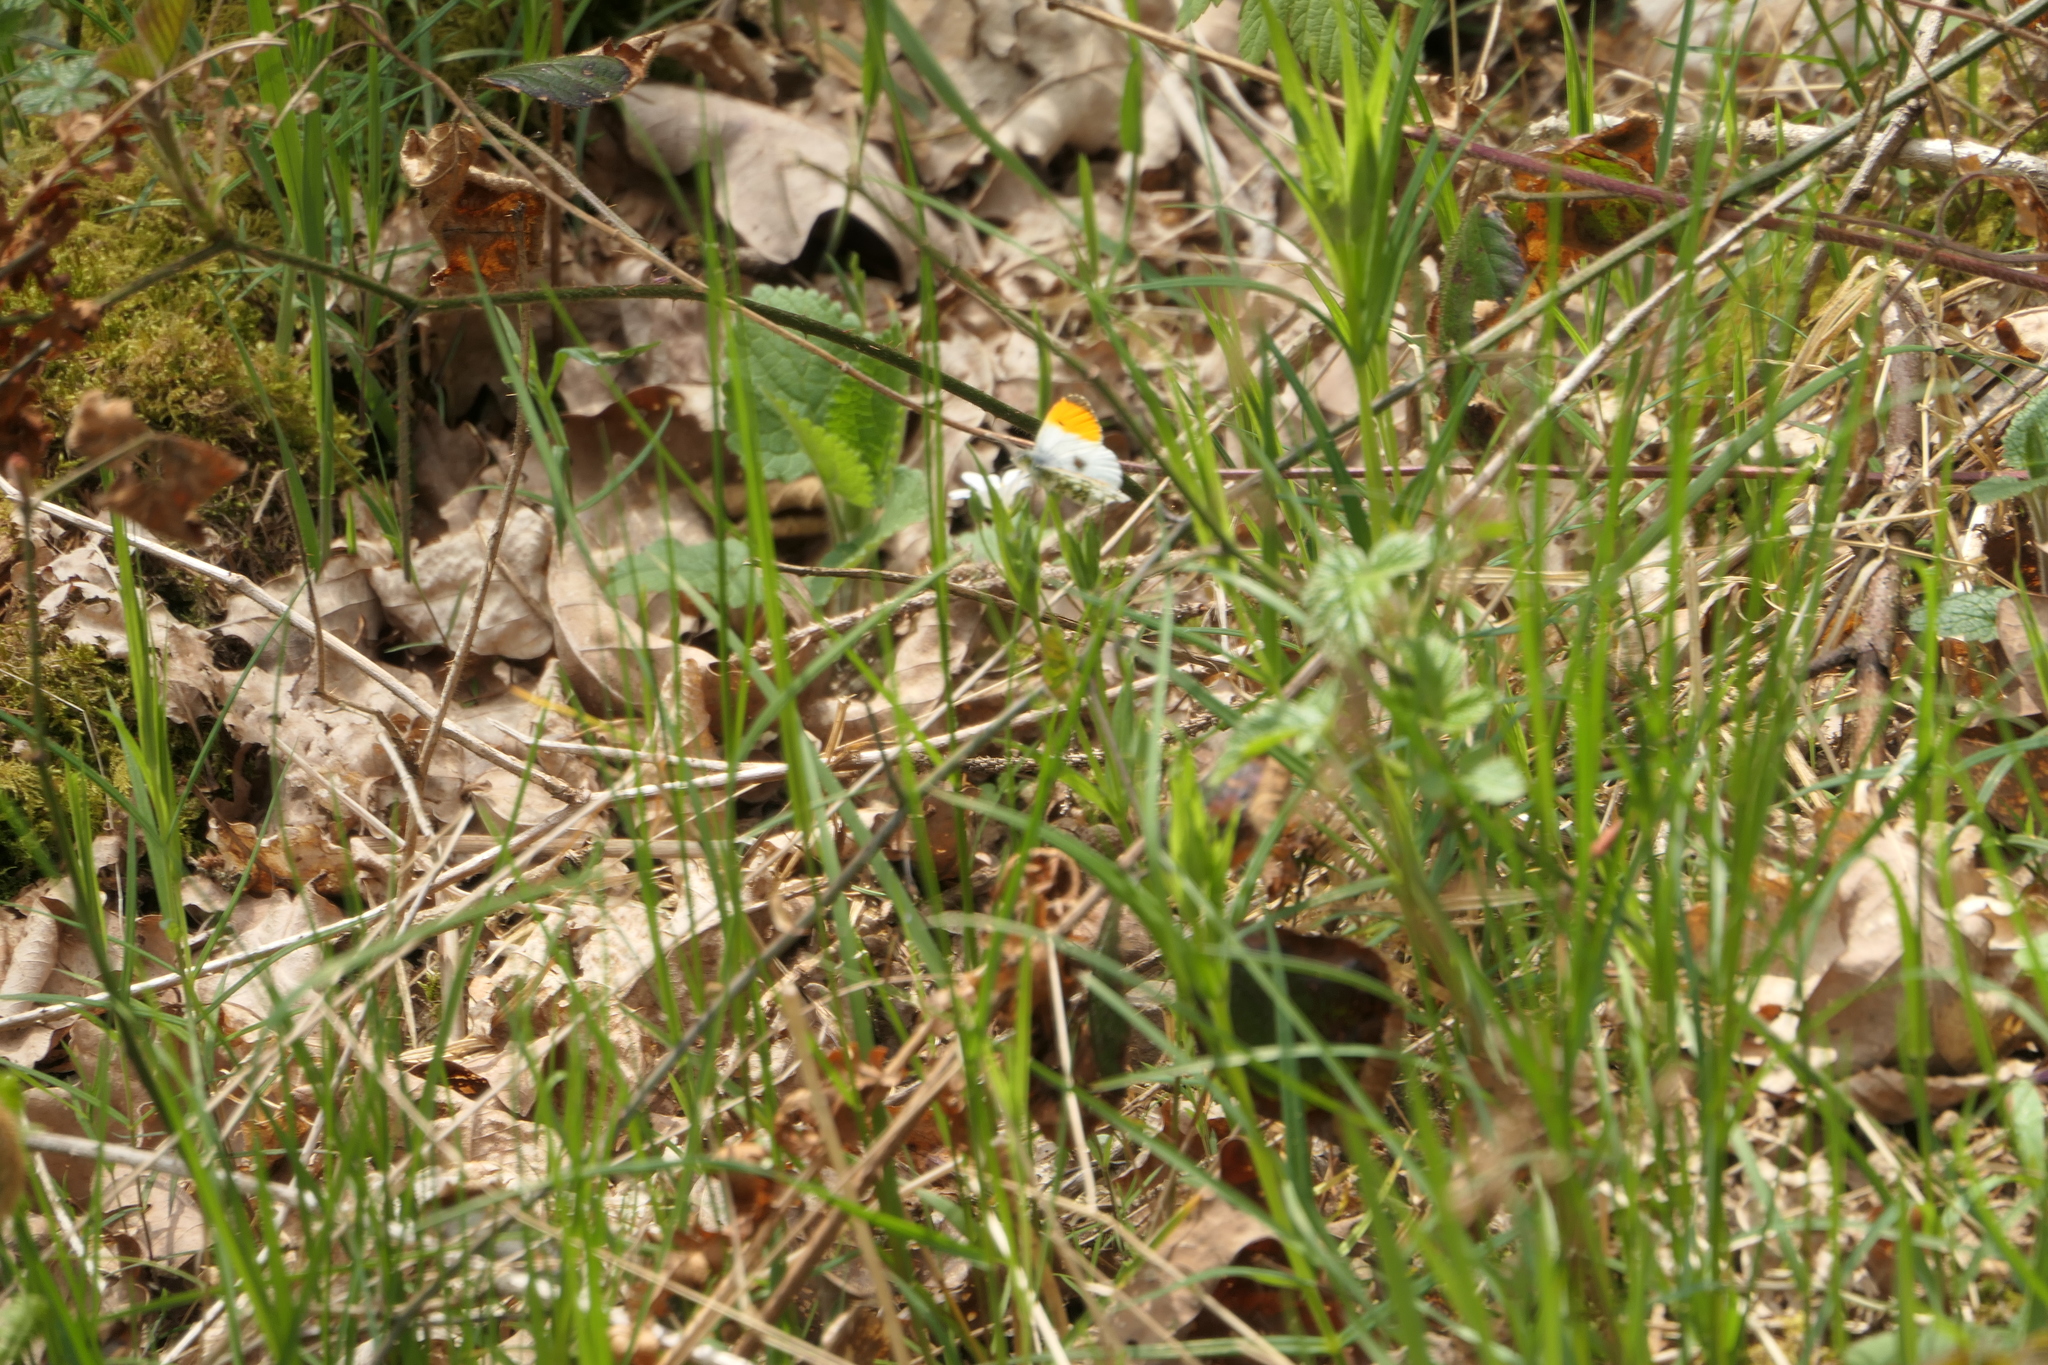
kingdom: Animalia
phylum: Arthropoda
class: Insecta
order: Lepidoptera
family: Pieridae
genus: Anthocharis
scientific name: Anthocharis cardamines
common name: Orange-tip
